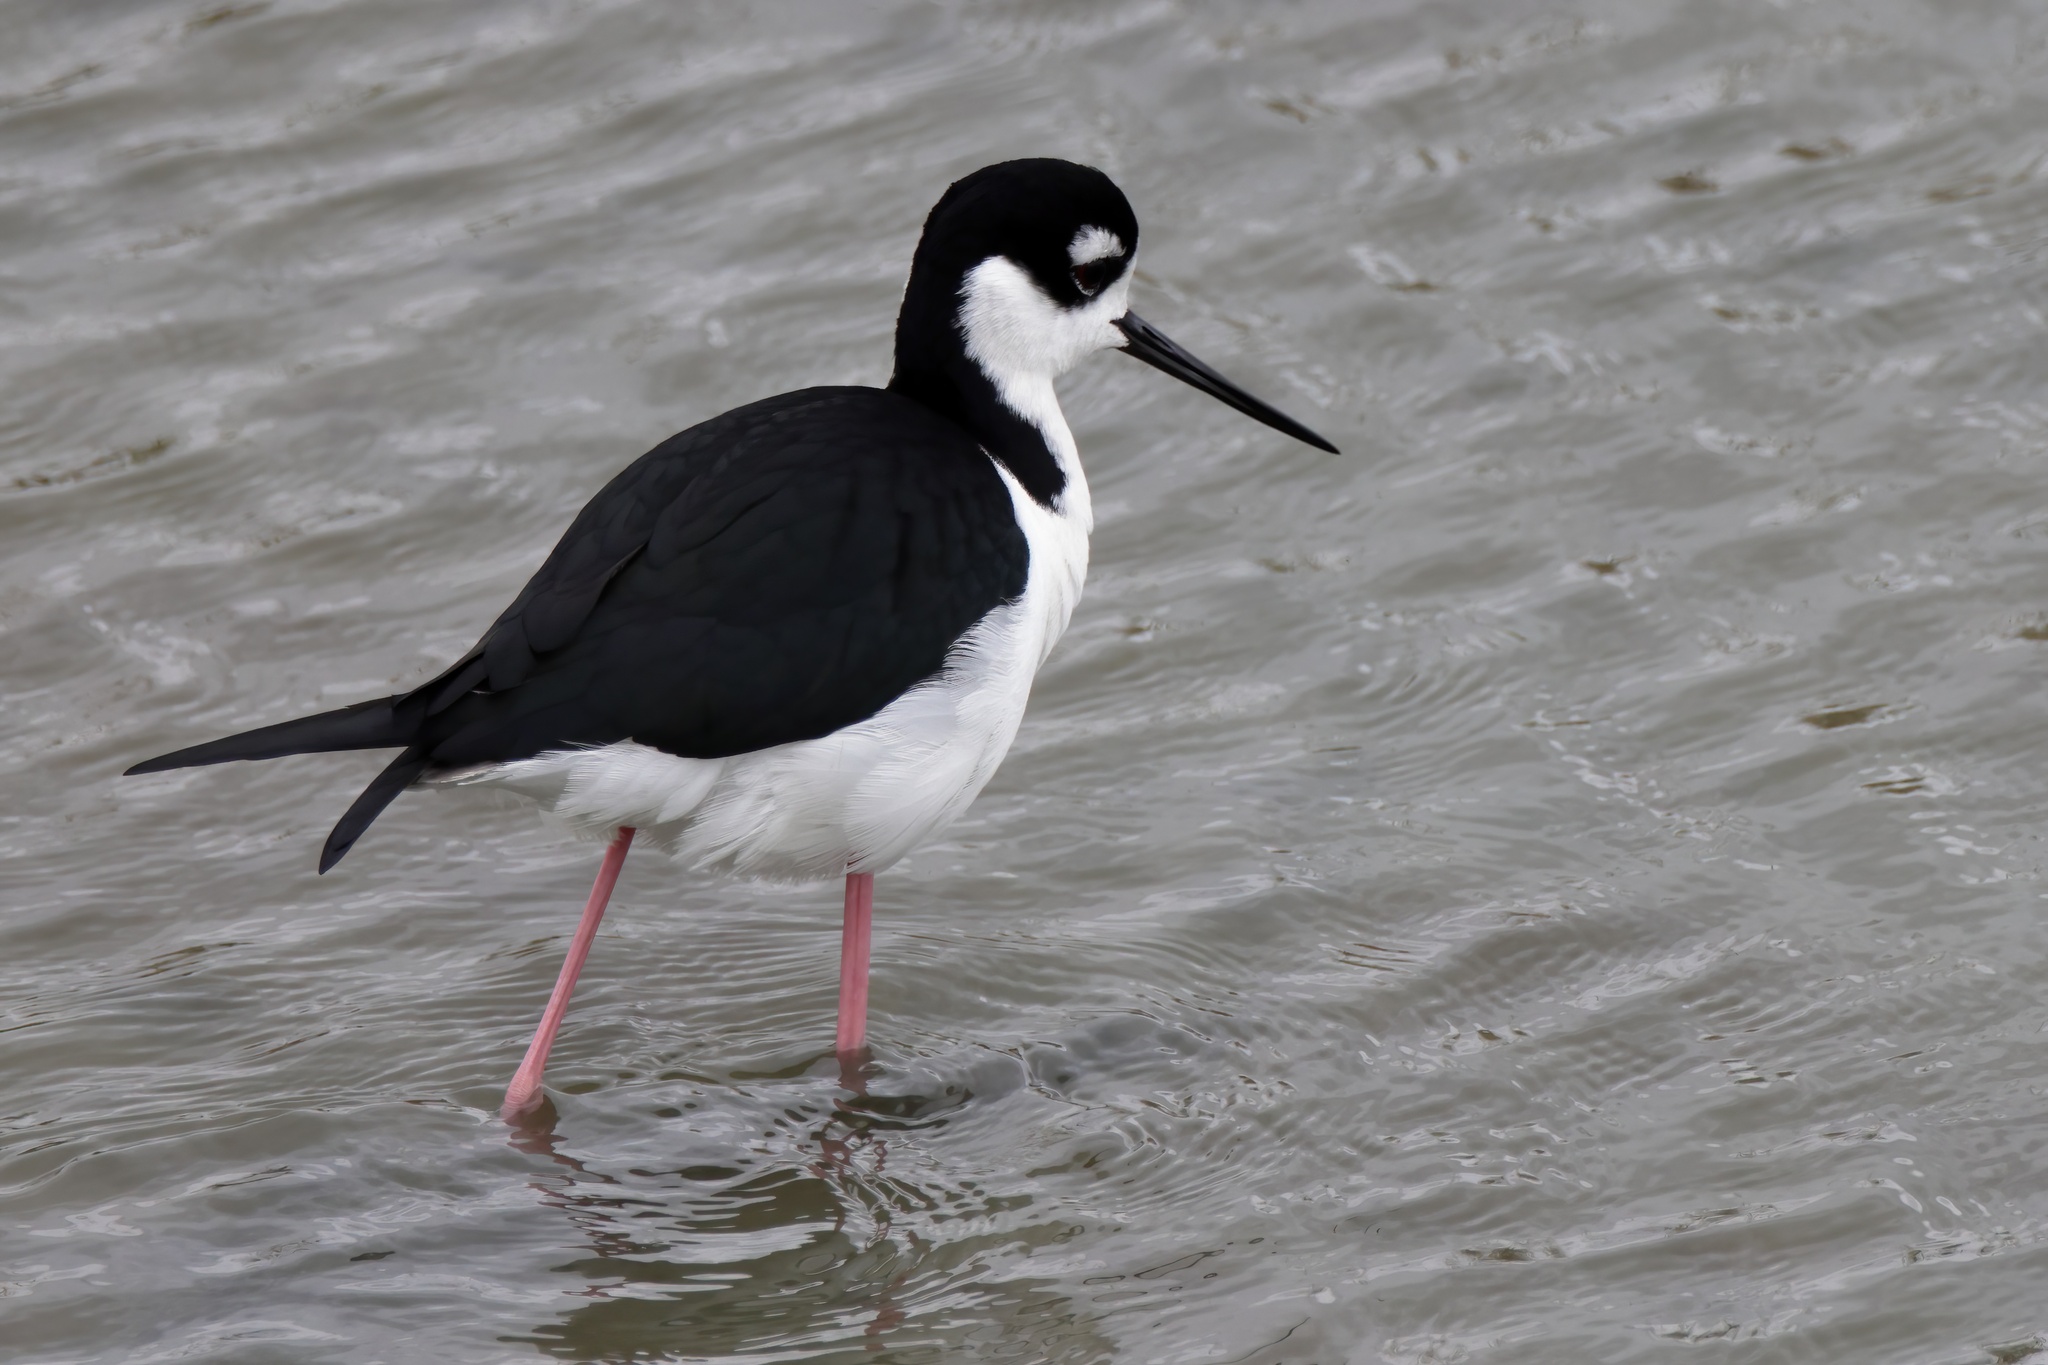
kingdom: Animalia
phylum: Chordata
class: Aves
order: Charadriiformes
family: Recurvirostridae
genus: Himantopus
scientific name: Himantopus mexicanus
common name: Black-necked stilt
